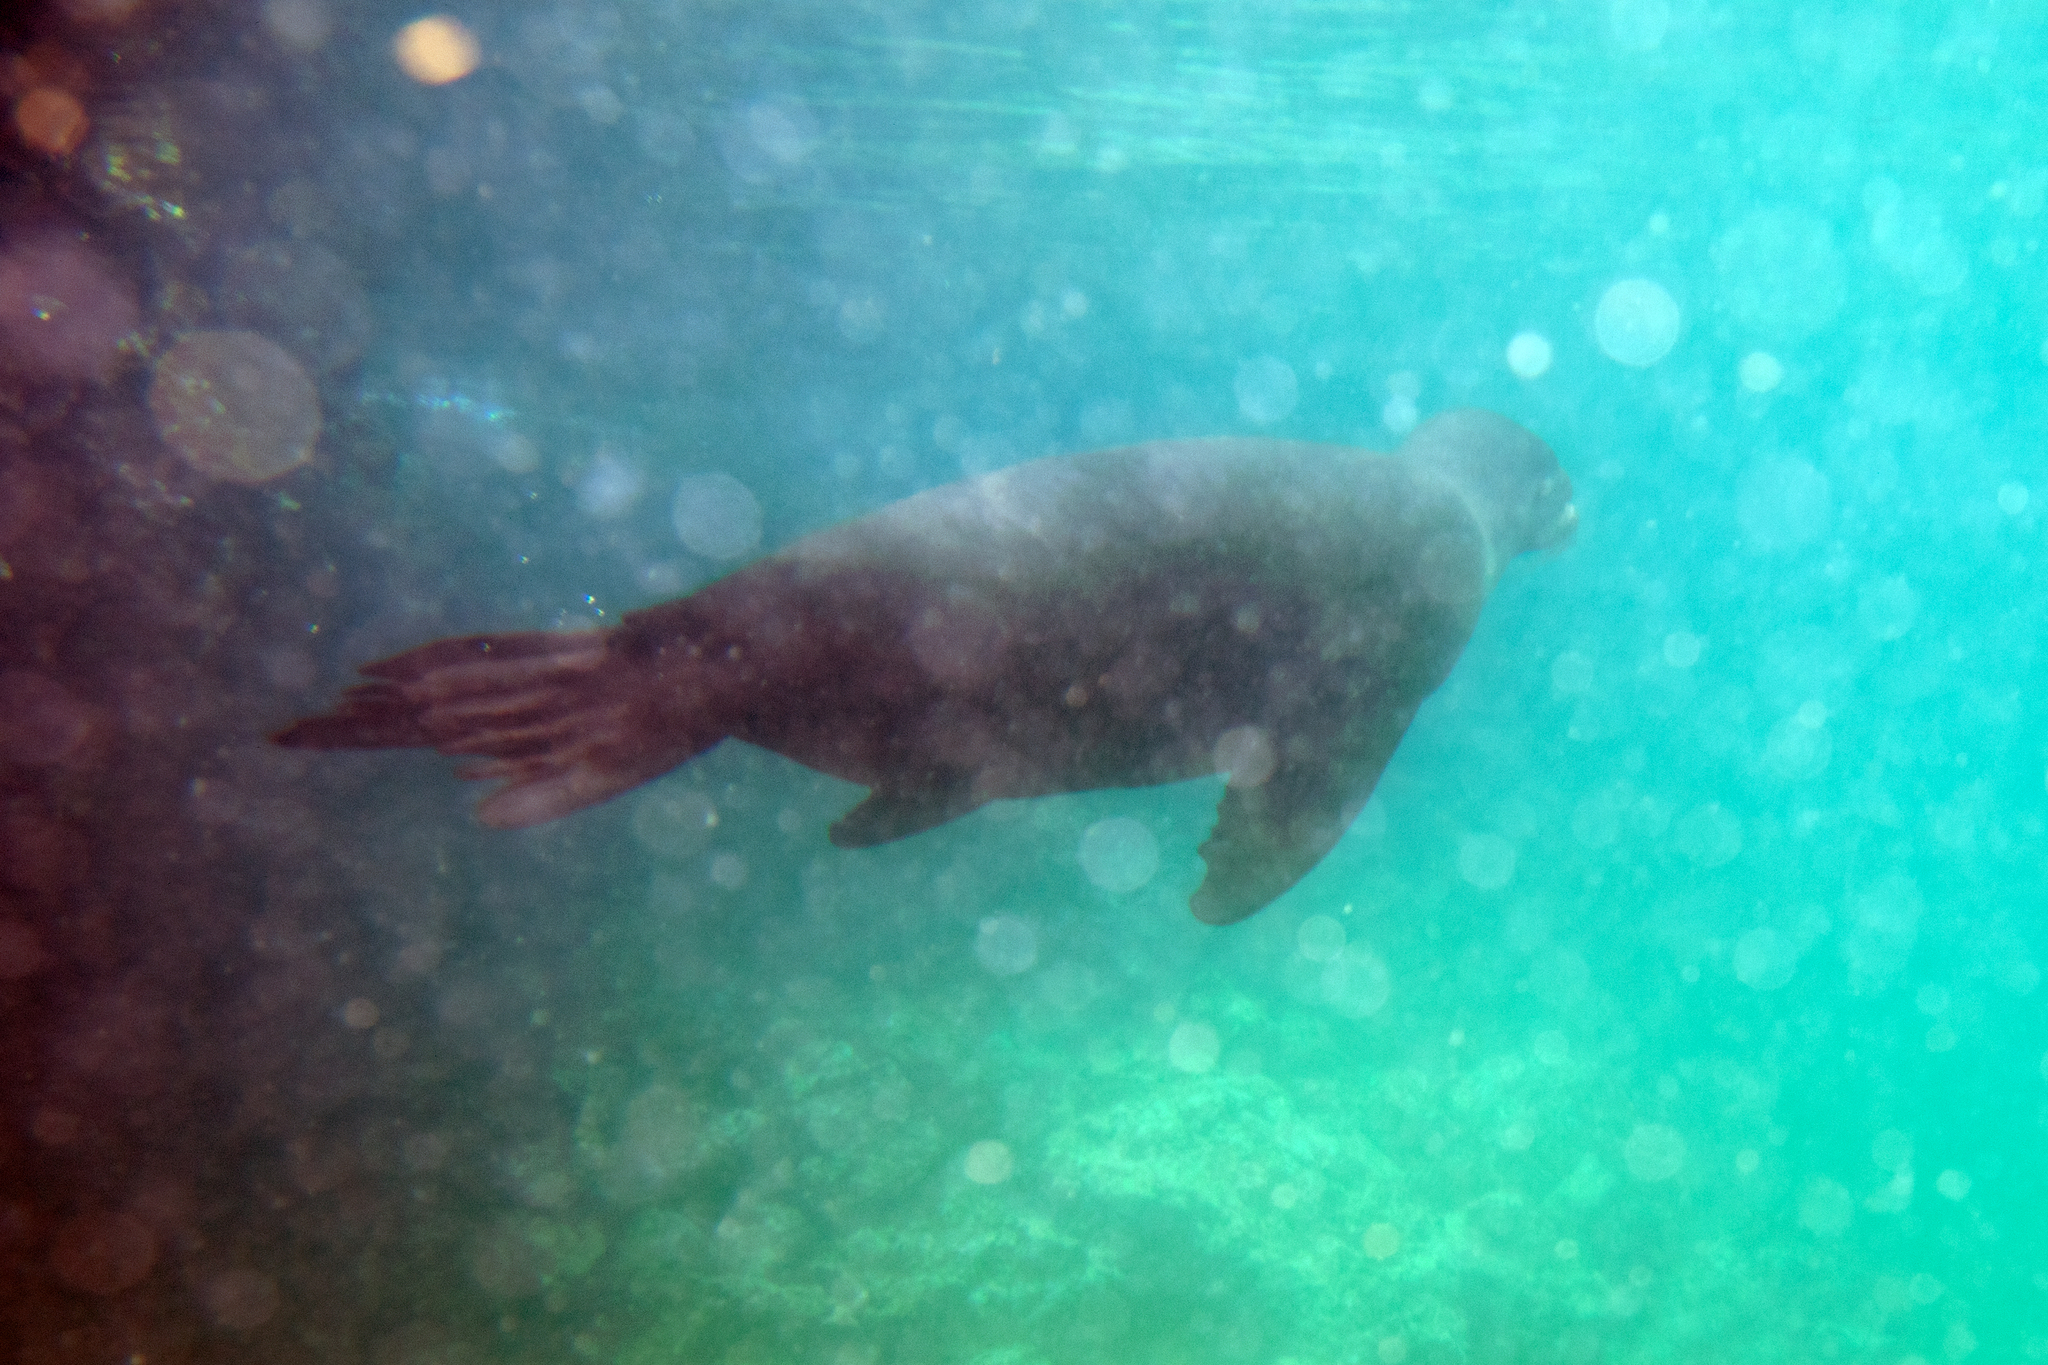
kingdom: Animalia
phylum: Chordata
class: Mammalia
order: Carnivora
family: Otariidae
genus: Zalophus
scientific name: Zalophus wollebaeki
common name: Galapagos sea lion
